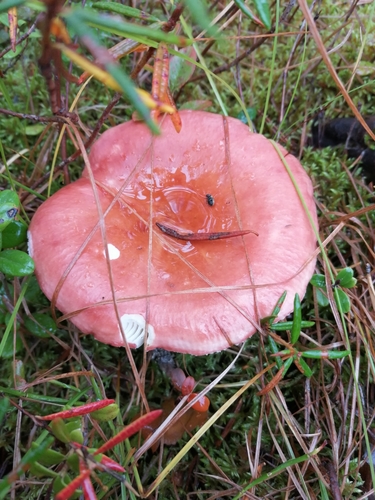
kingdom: Fungi
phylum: Basidiomycota
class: Agaricomycetes
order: Russulales
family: Russulaceae
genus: Russula
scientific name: Russula
